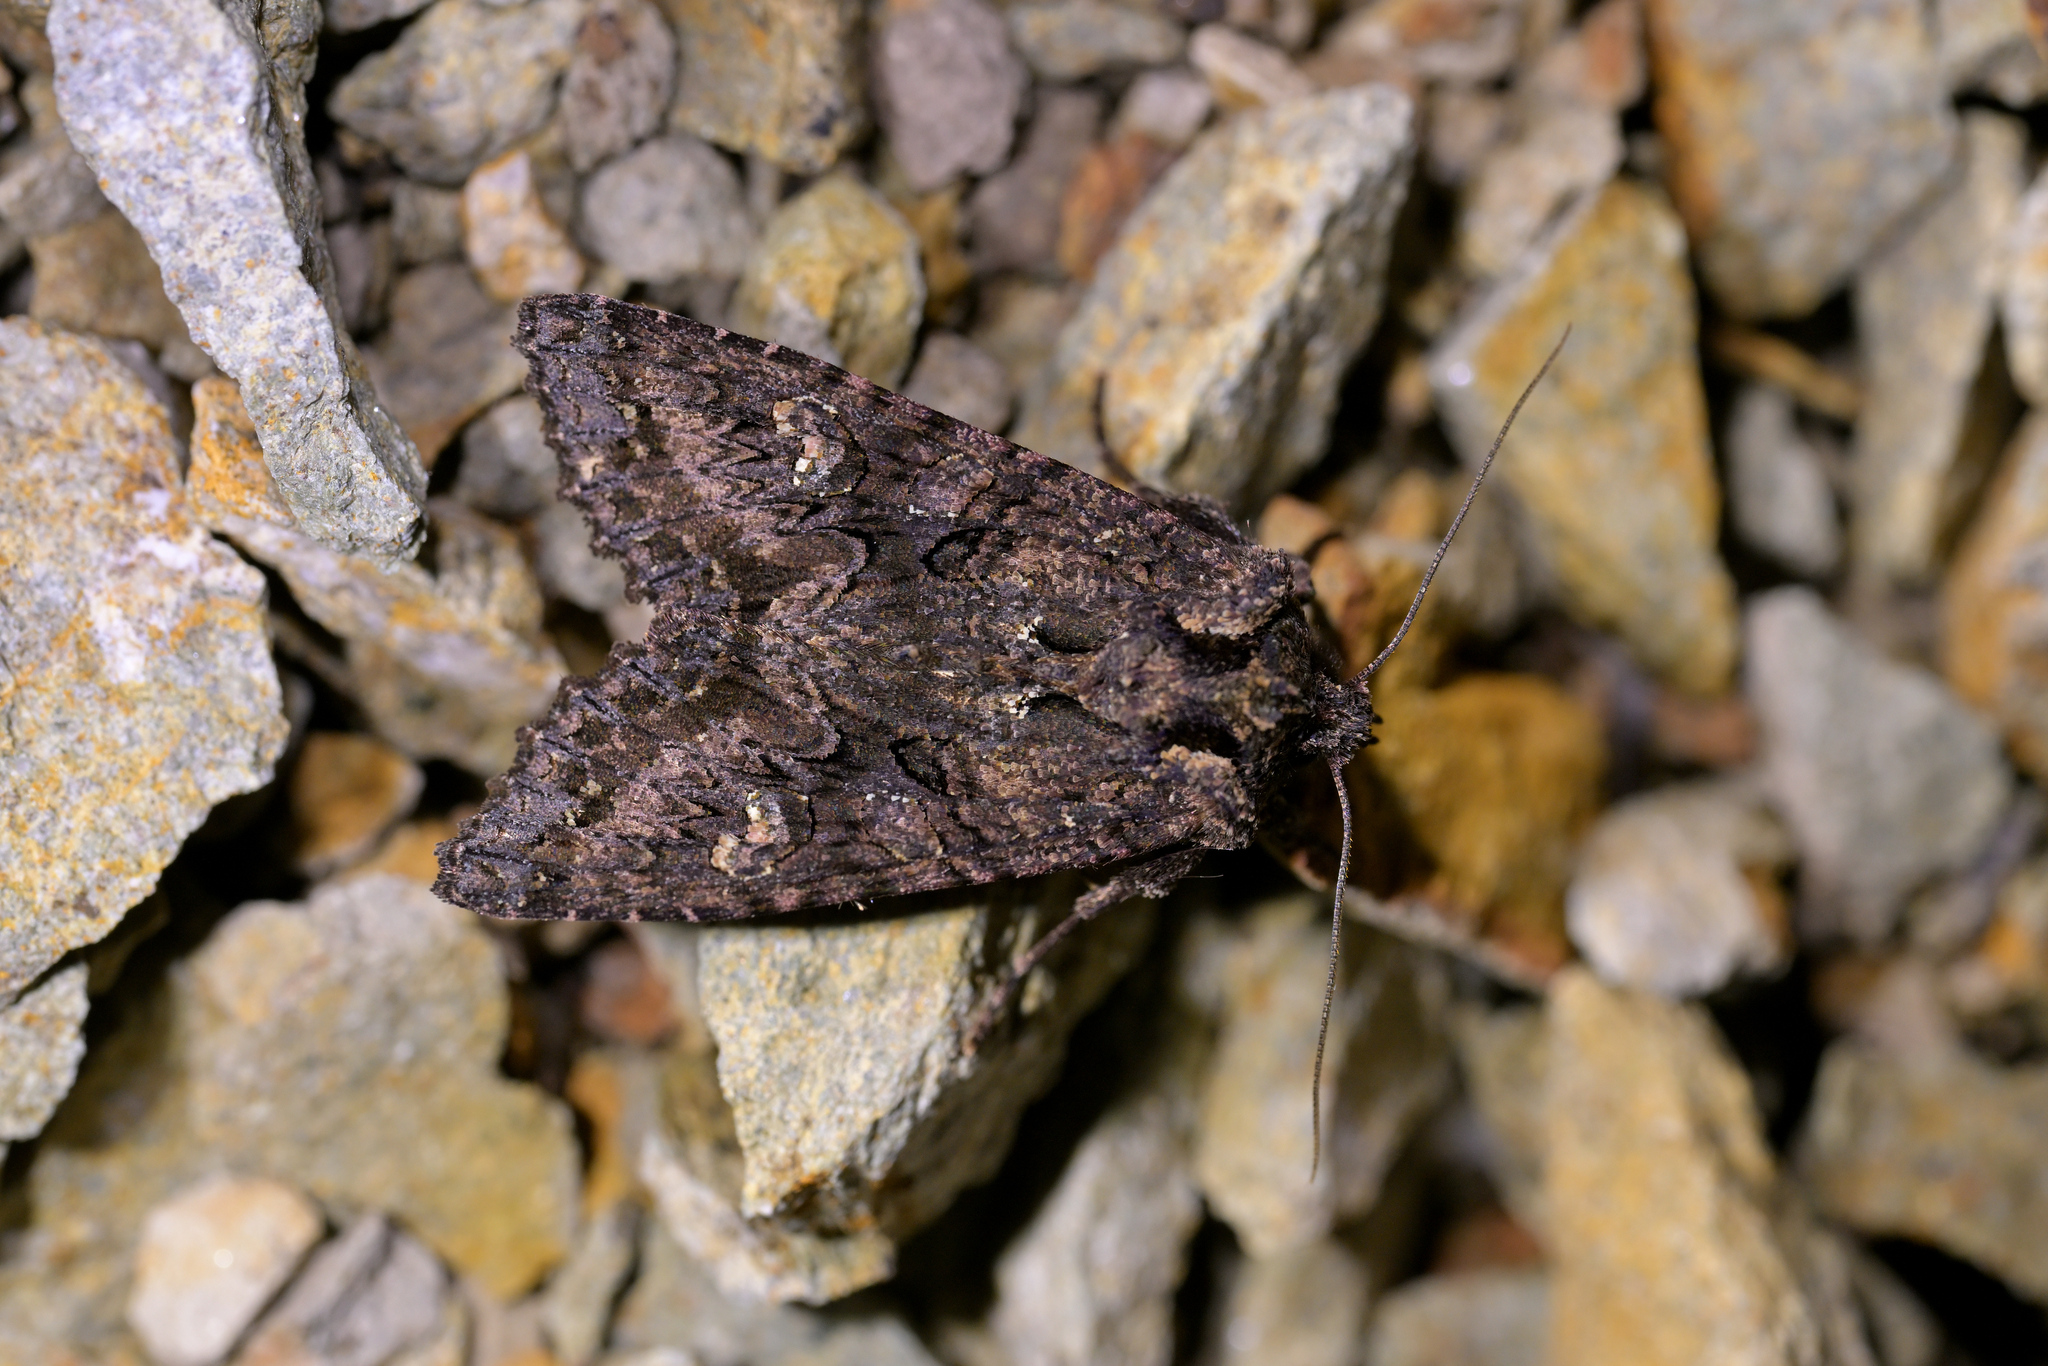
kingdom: Animalia
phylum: Arthropoda
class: Insecta
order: Lepidoptera
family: Noctuidae
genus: Meterana
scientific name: Meterana dotata
